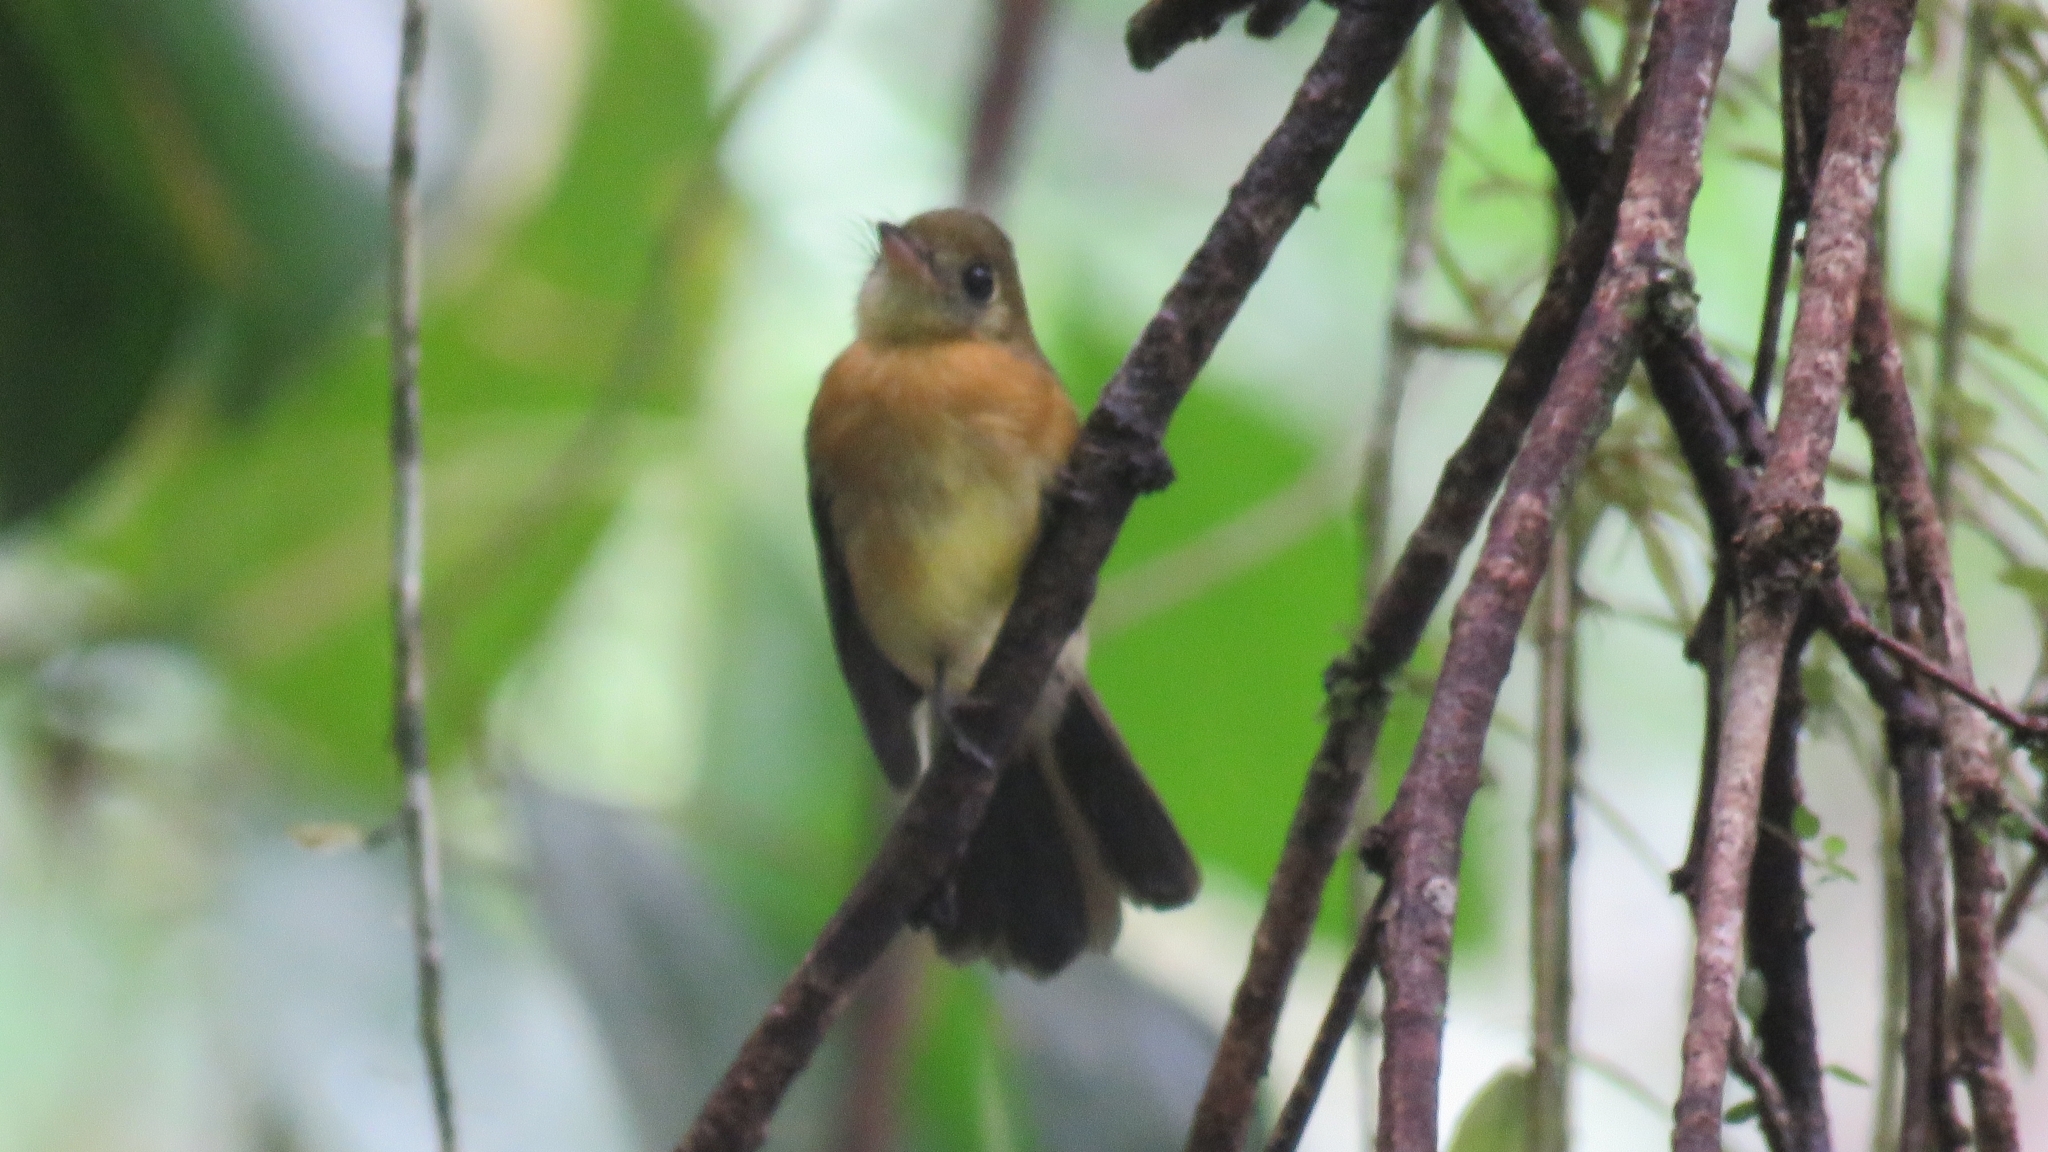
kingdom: Animalia
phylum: Chordata
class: Aves
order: Passeriformes
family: Tyrannidae
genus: Myiobius
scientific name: Myiobius barbatus
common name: Whiskered myiobius
